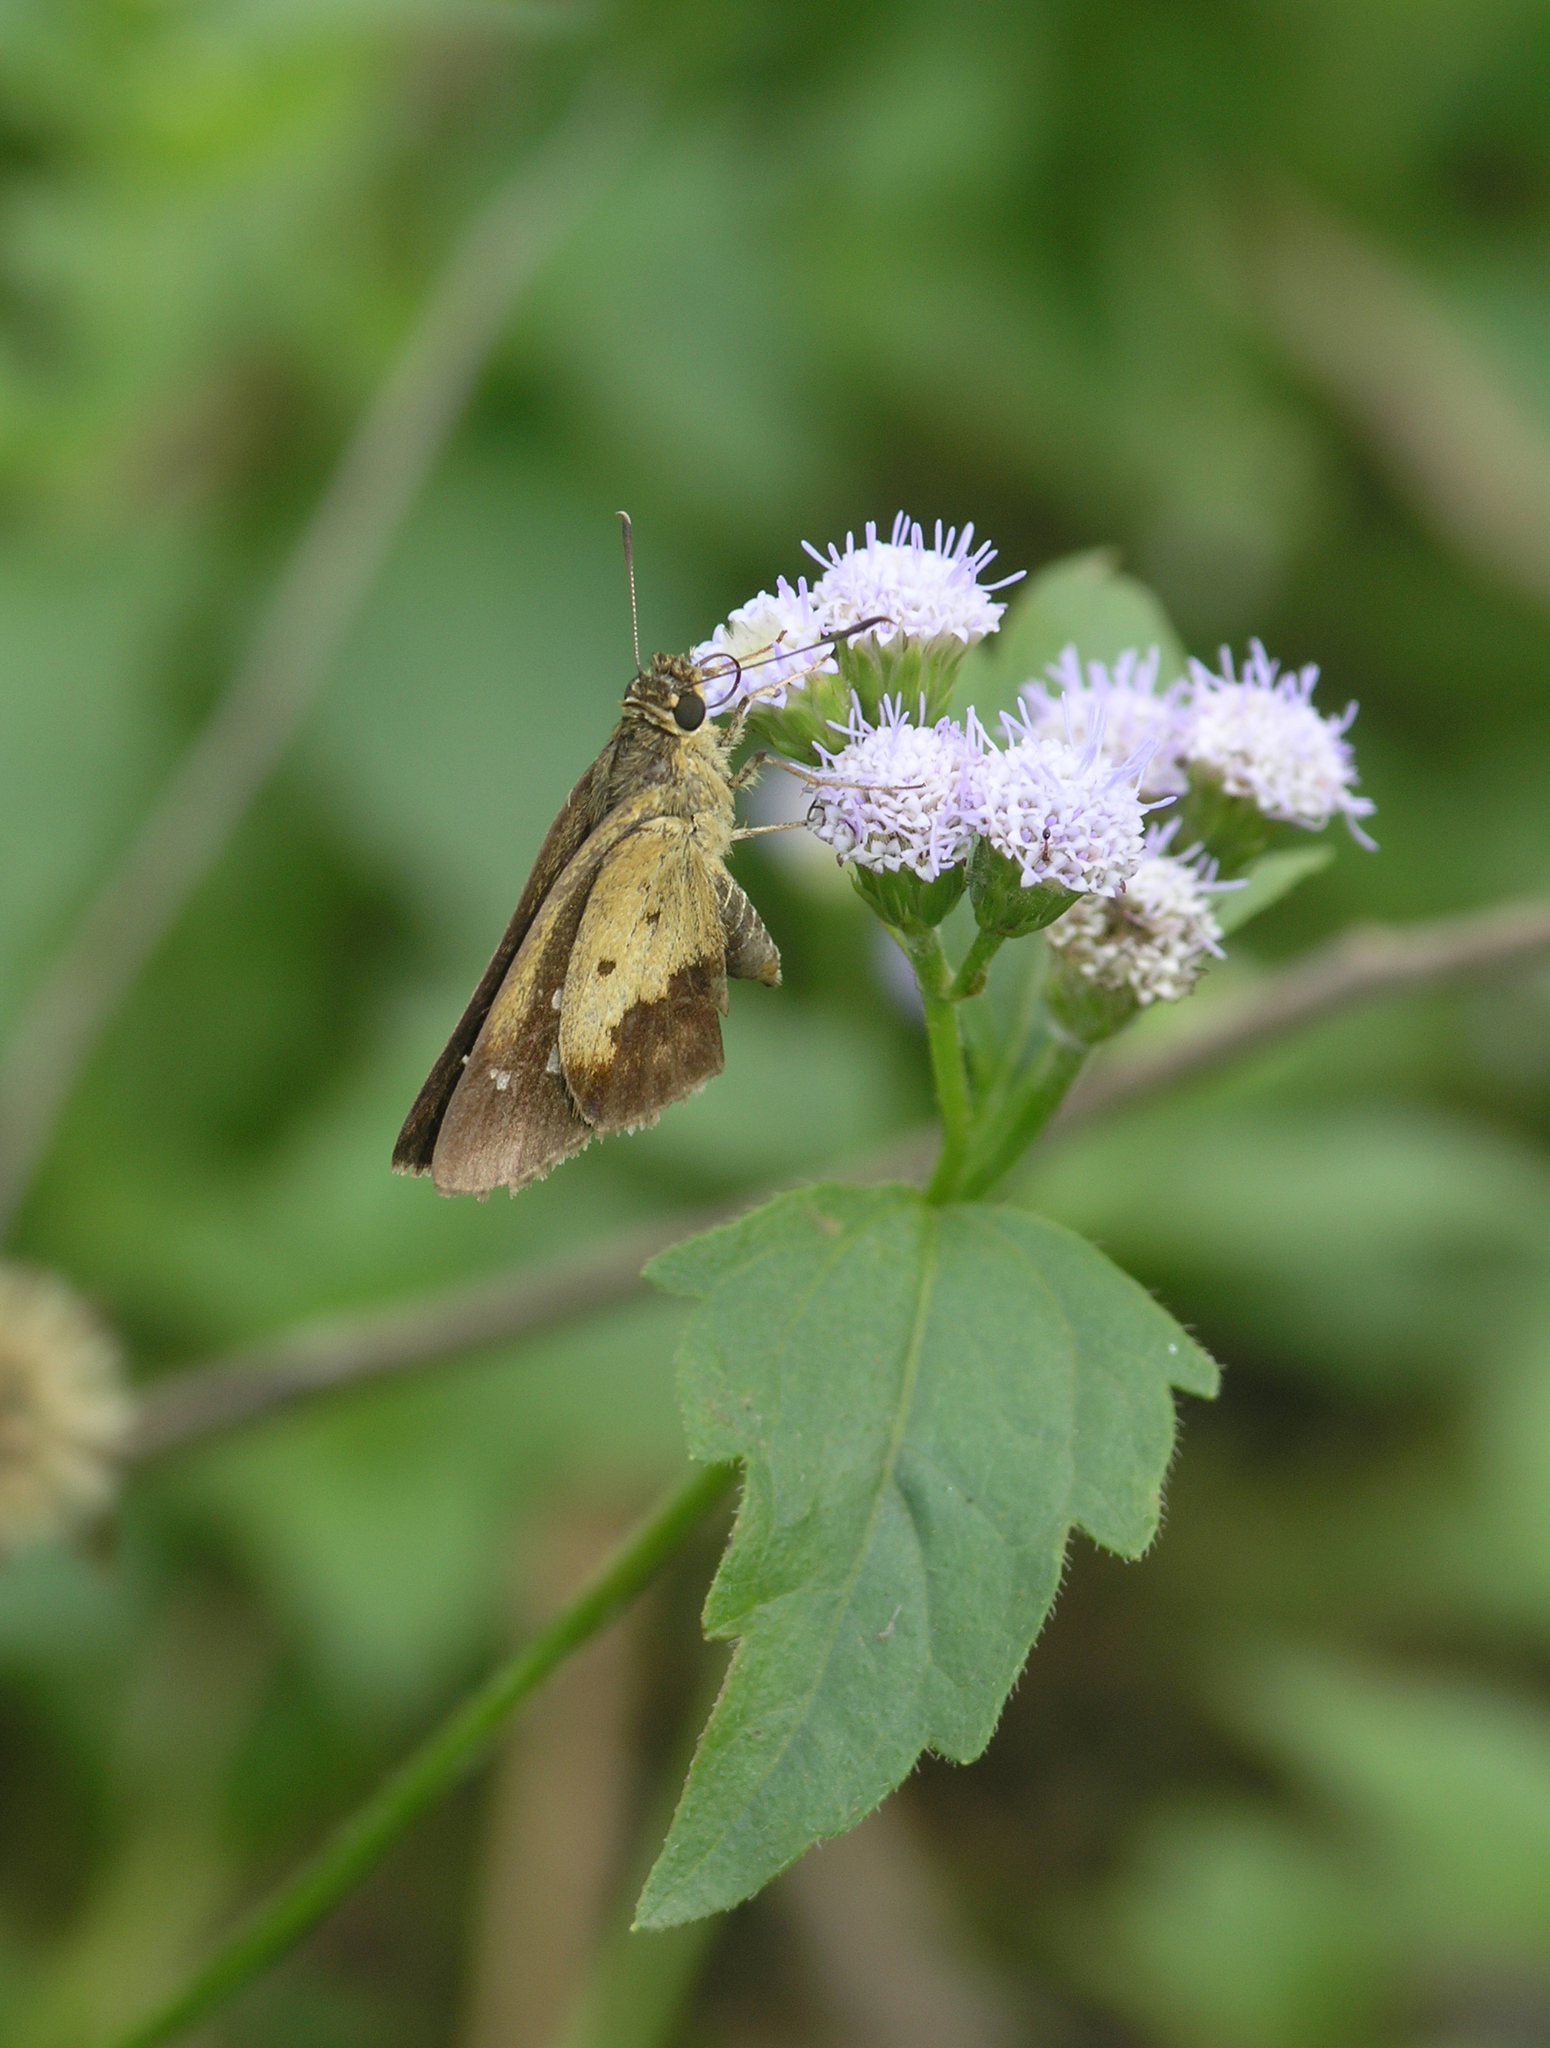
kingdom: Plantae
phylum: Tracheophyta
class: Magnoliopsida
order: Asterales
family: Asteraceae
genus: Chromolaena
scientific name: Chromolaena odorata
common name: Siamweed
